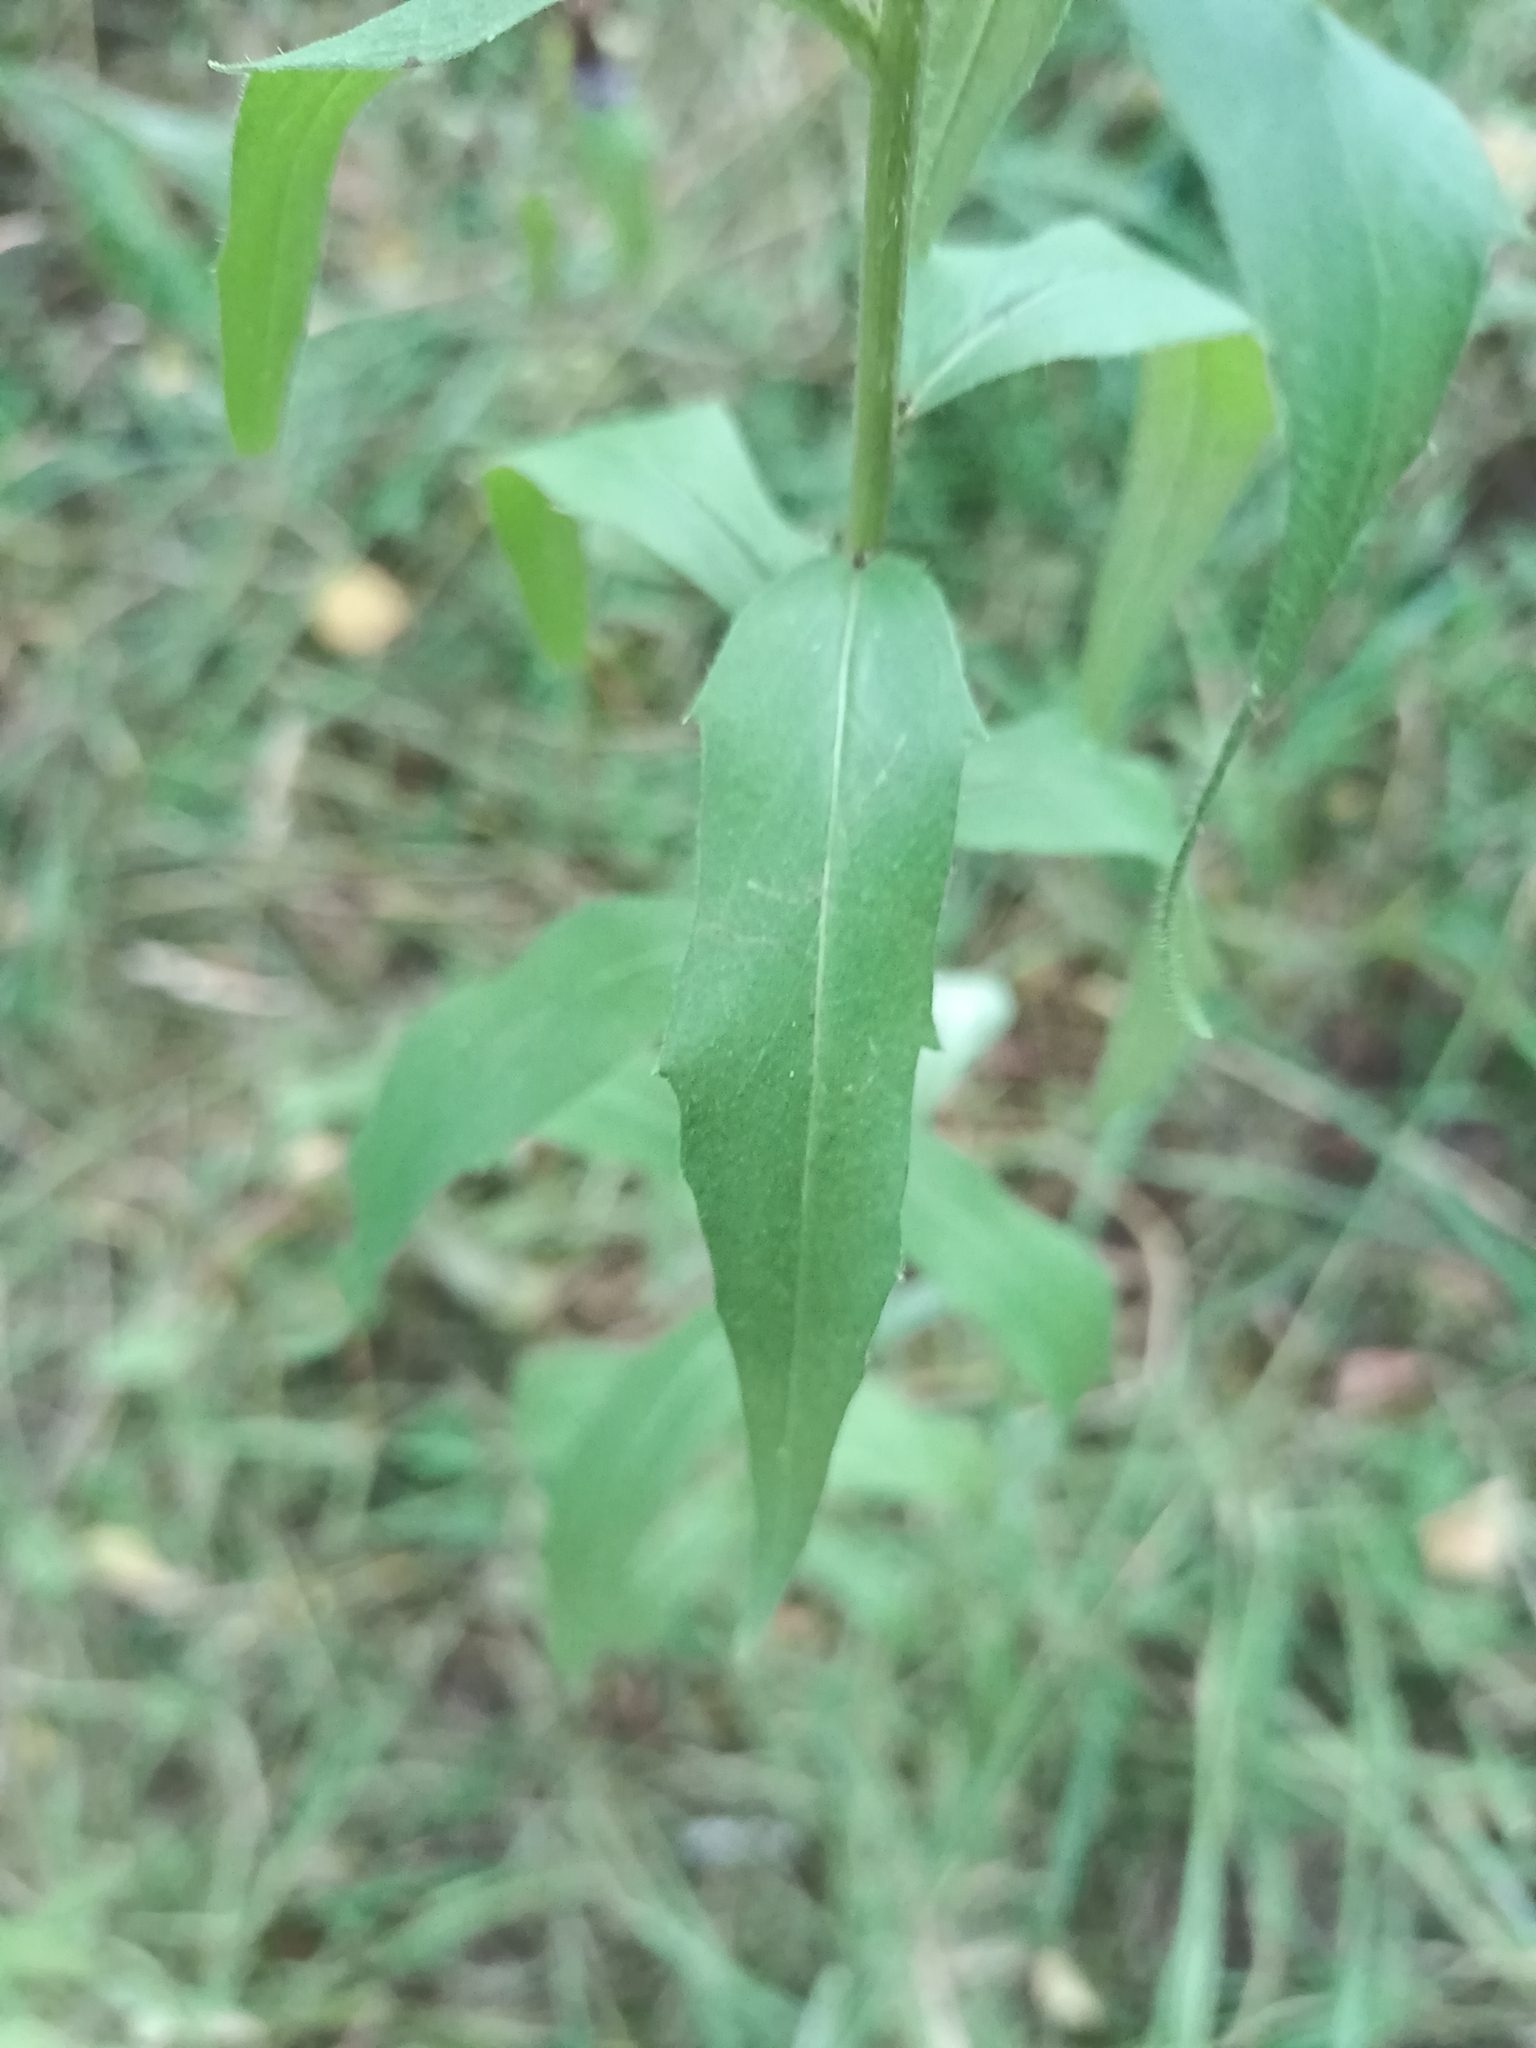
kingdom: Plantae
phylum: Tracheophyta
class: Magnoliopsida
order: Asterales
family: Asteraceae
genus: Hieracium
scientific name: Hieracium umbellatum
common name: Northern hawkweed
